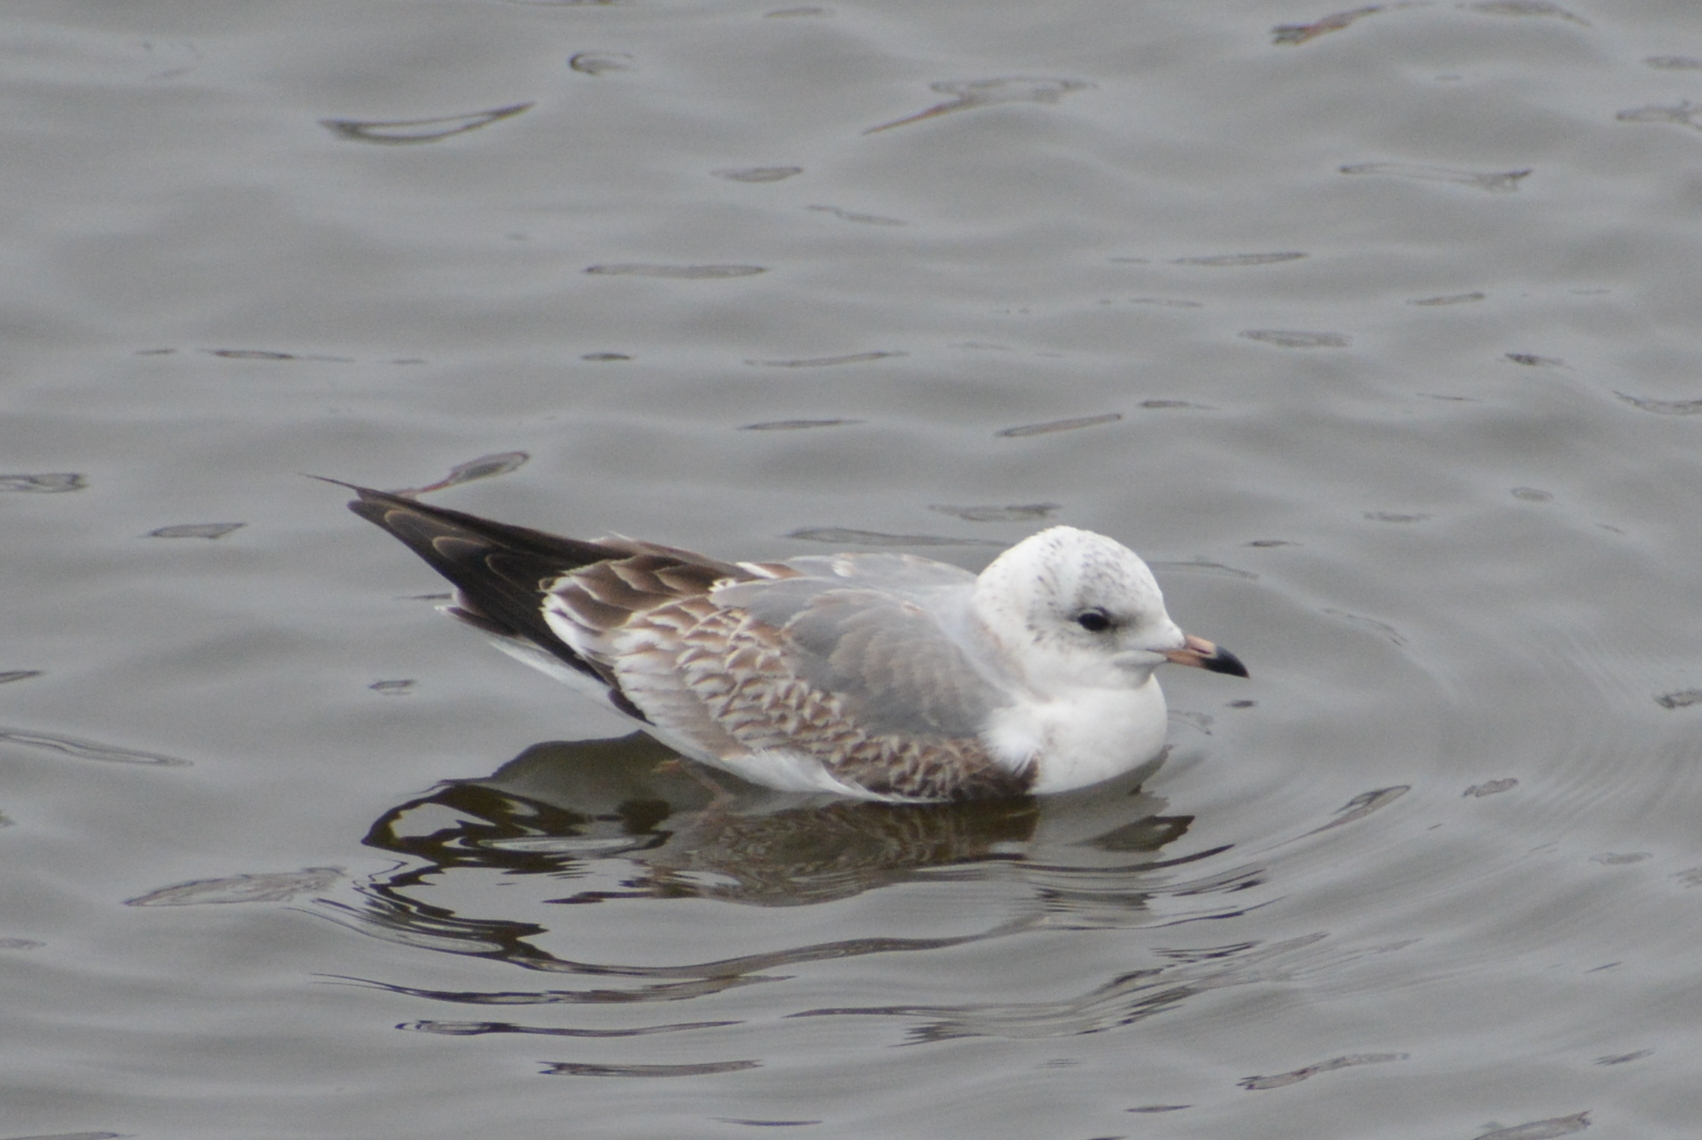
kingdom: Animalia
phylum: Chordata
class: Aves
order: Charadriiformes
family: Laridae
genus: Larus
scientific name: Larus canus
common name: Mew gull
